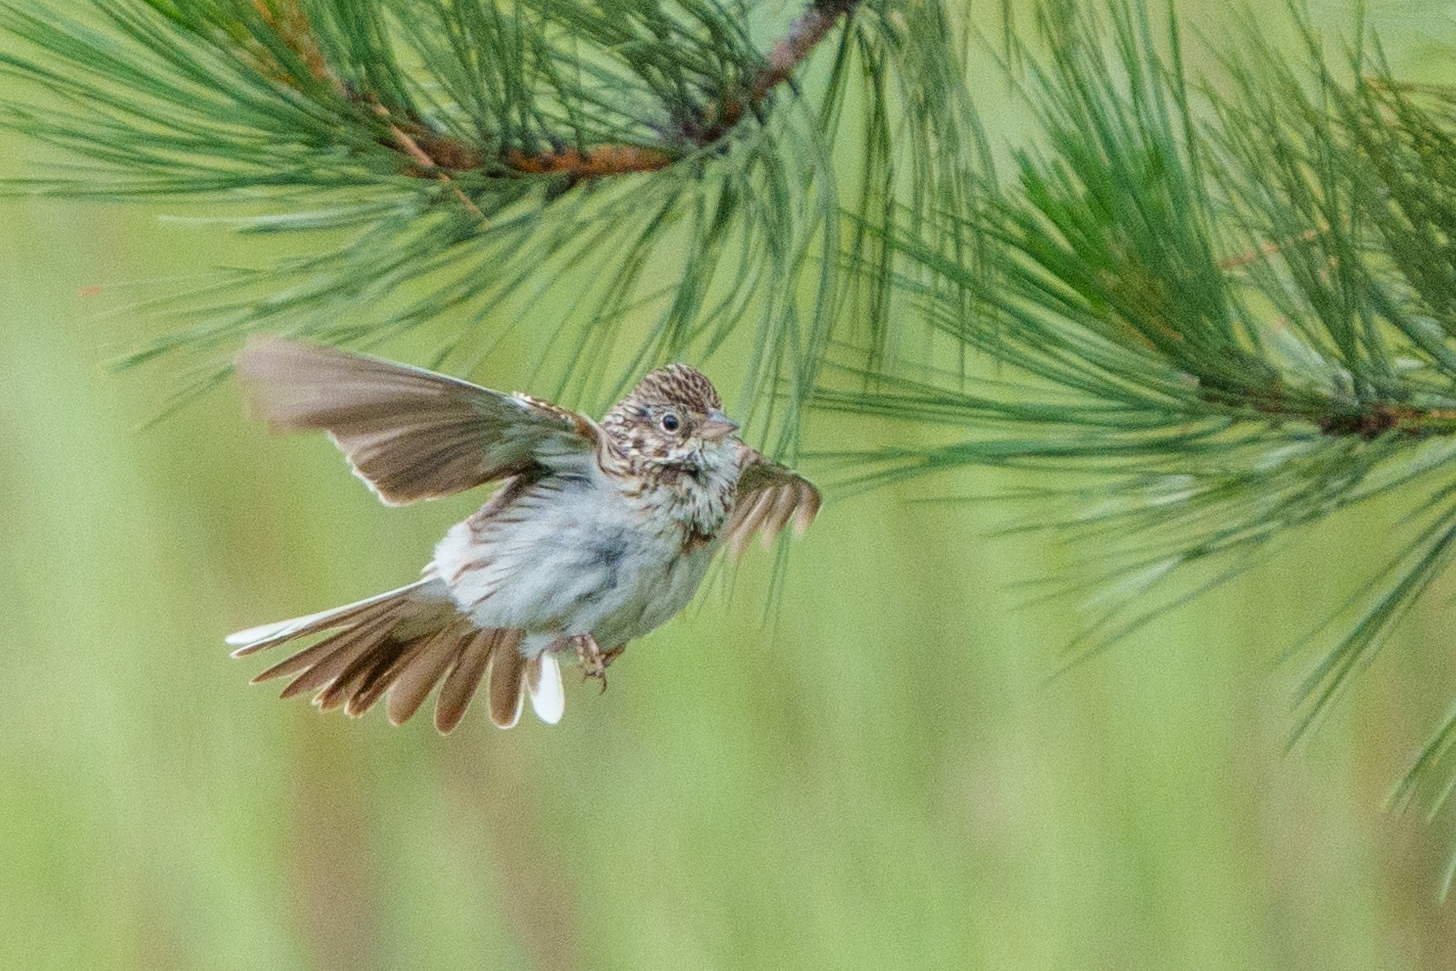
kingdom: Animalia
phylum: Chordata
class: Aves
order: Passeriformes
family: Passerellidae
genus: Pooecetes
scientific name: Pooecetes gramineus
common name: Vesper sparrow
